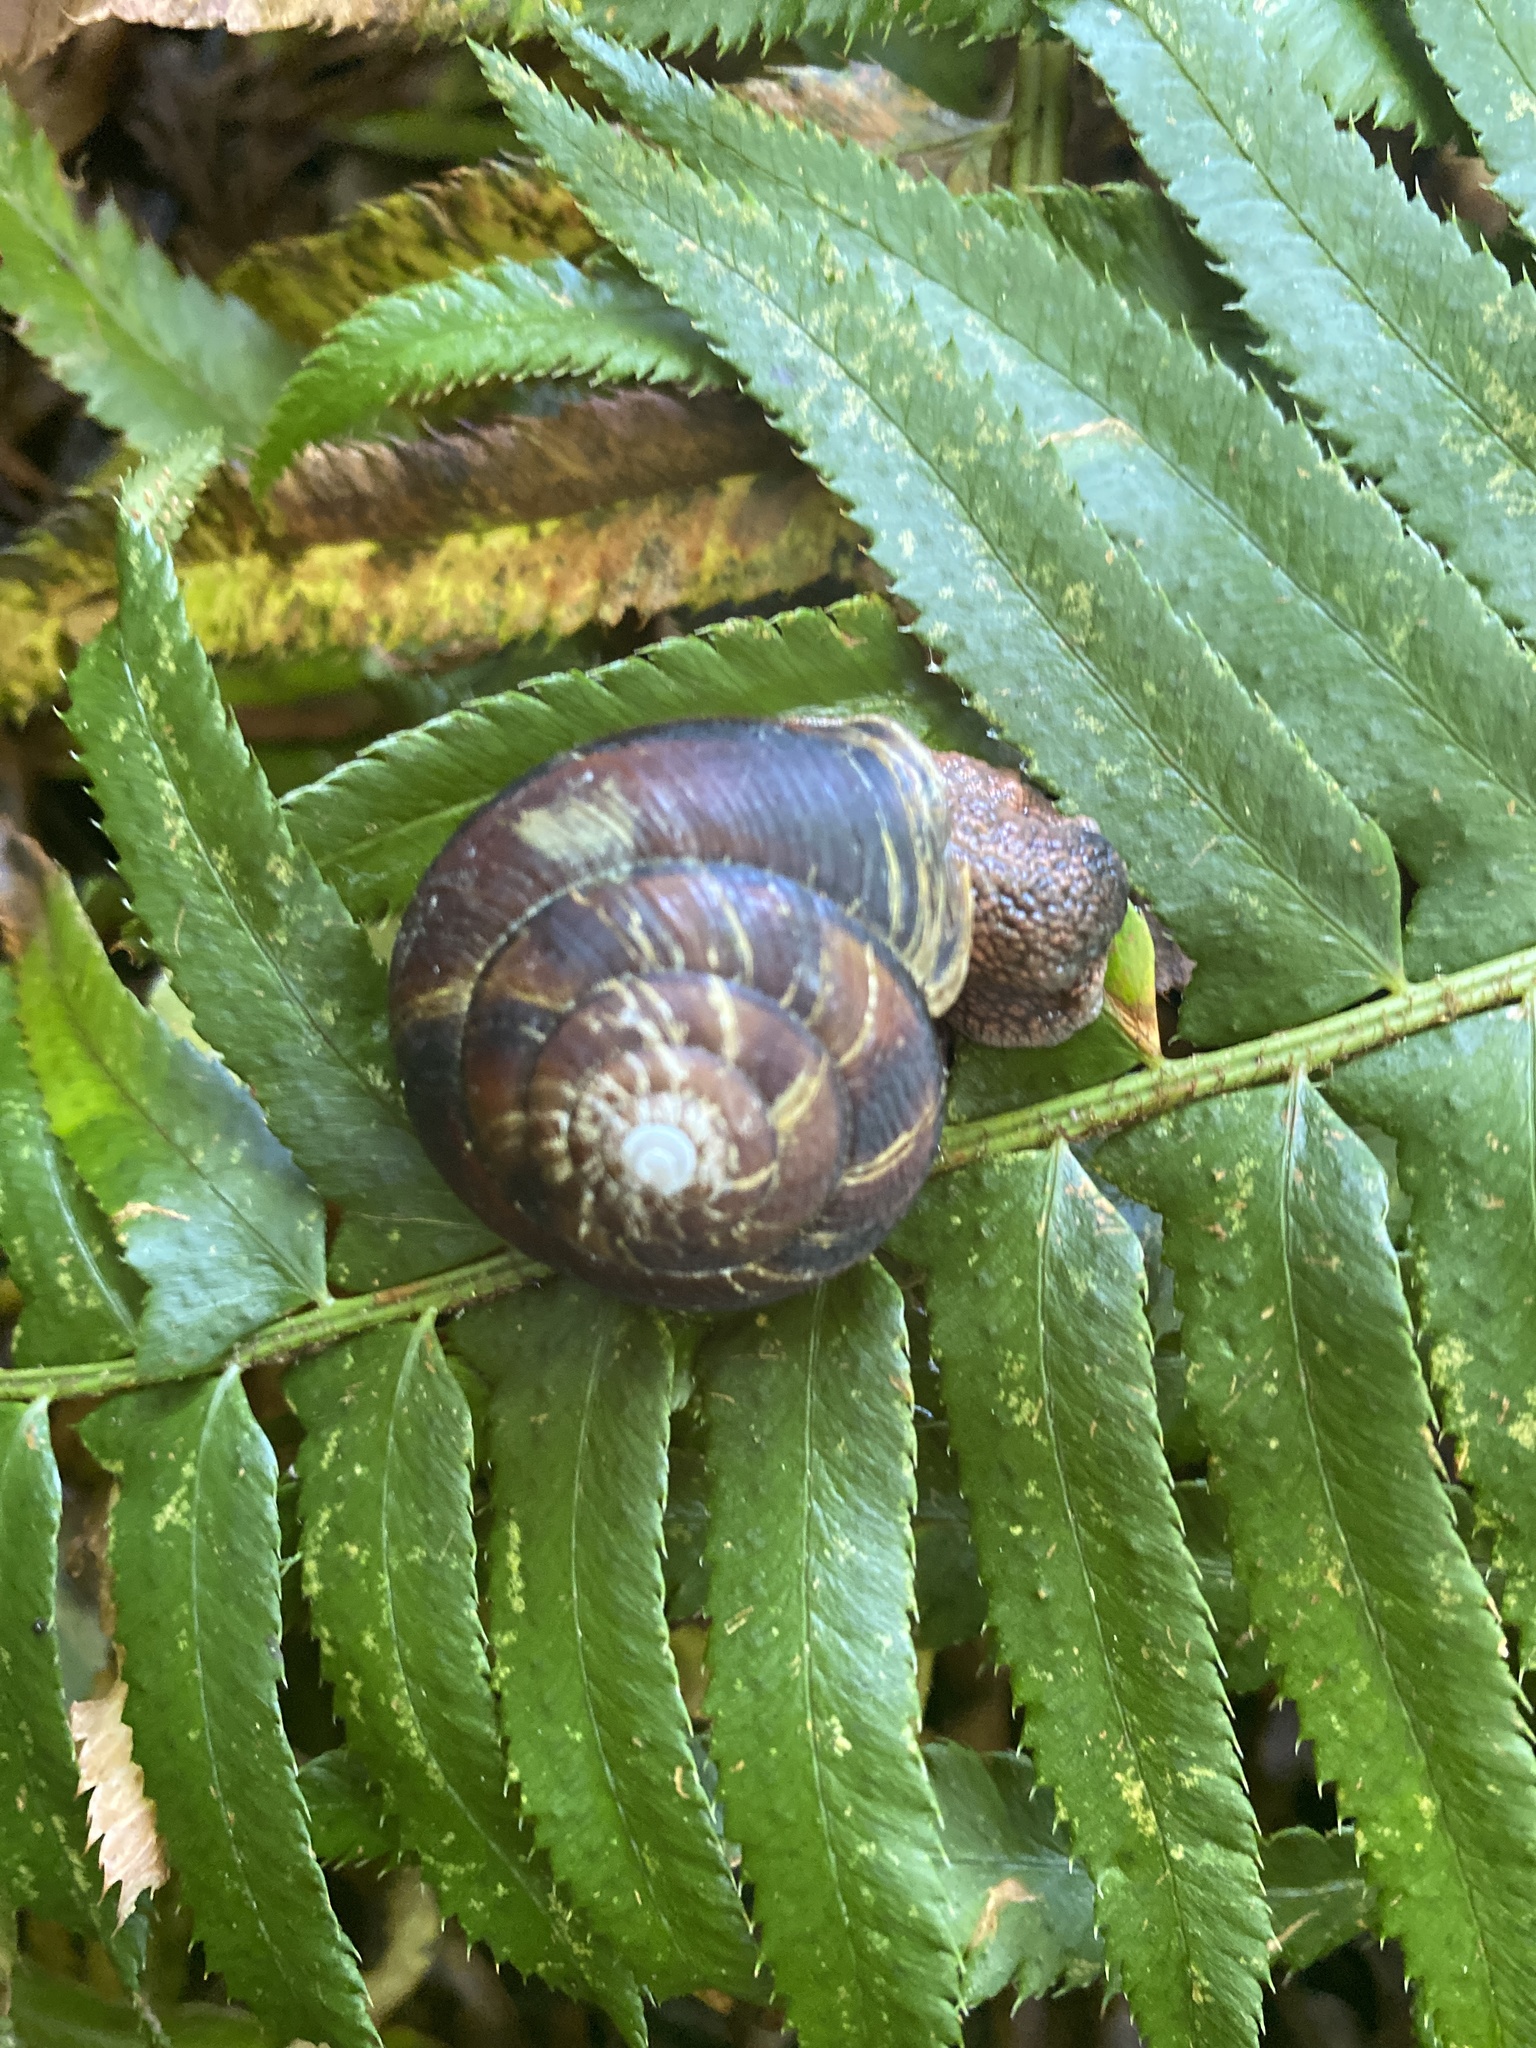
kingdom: Animalia
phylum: Mollusca
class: Gastropoda
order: Stylommatophora
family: Xanthonychidae
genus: Monadenia
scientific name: Monadenia fidelis
